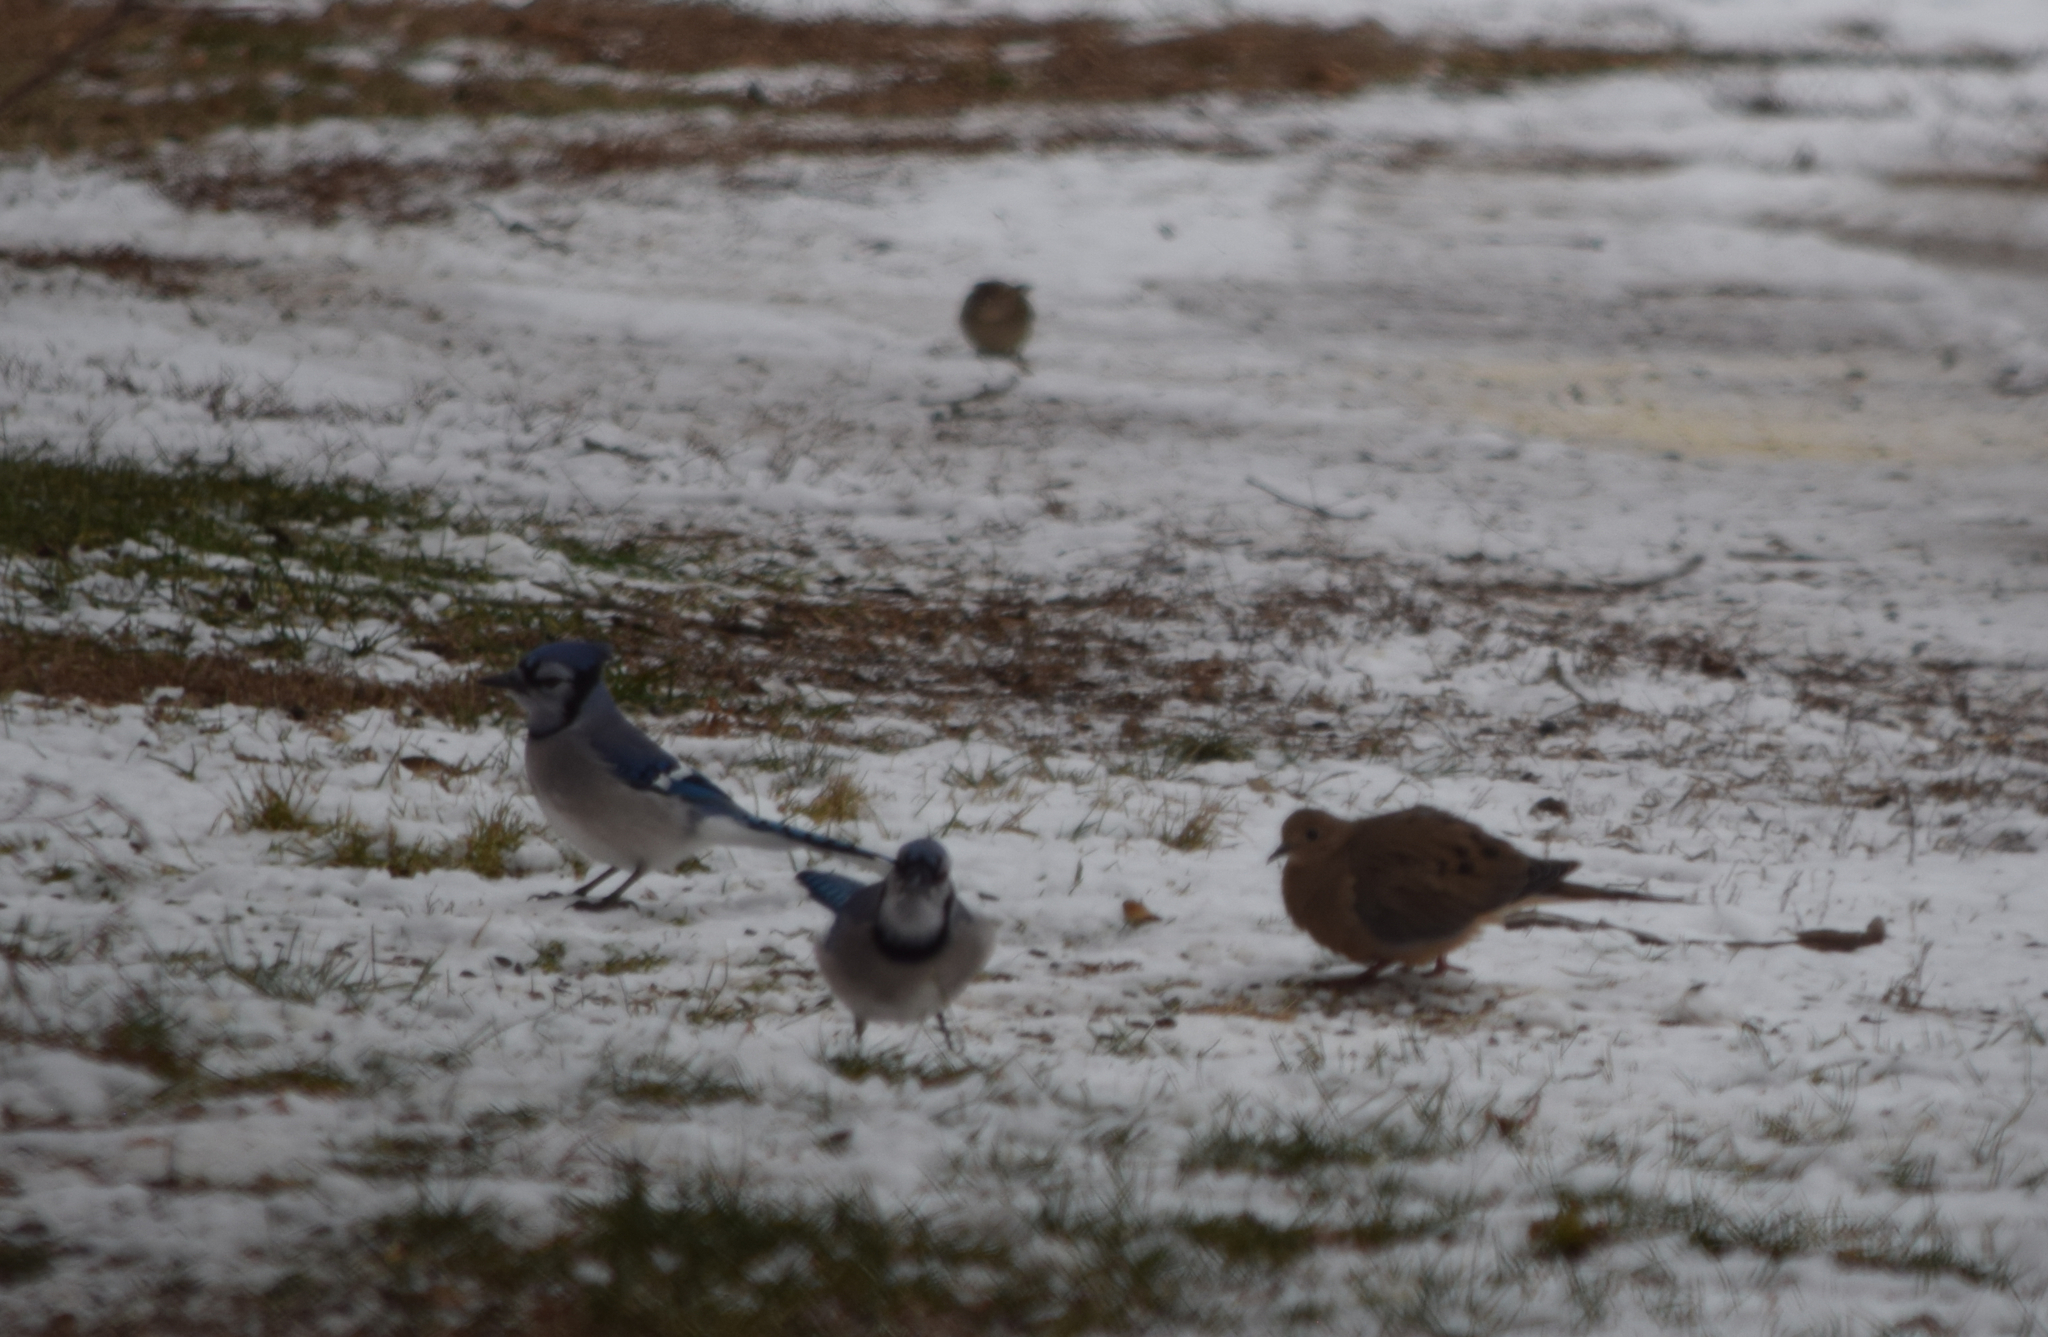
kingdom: Animalia
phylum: Chordata
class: Aves
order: Columbiformes
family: Columbidae
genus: Zenaida
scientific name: Zenaida macroura
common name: Mourning dove
